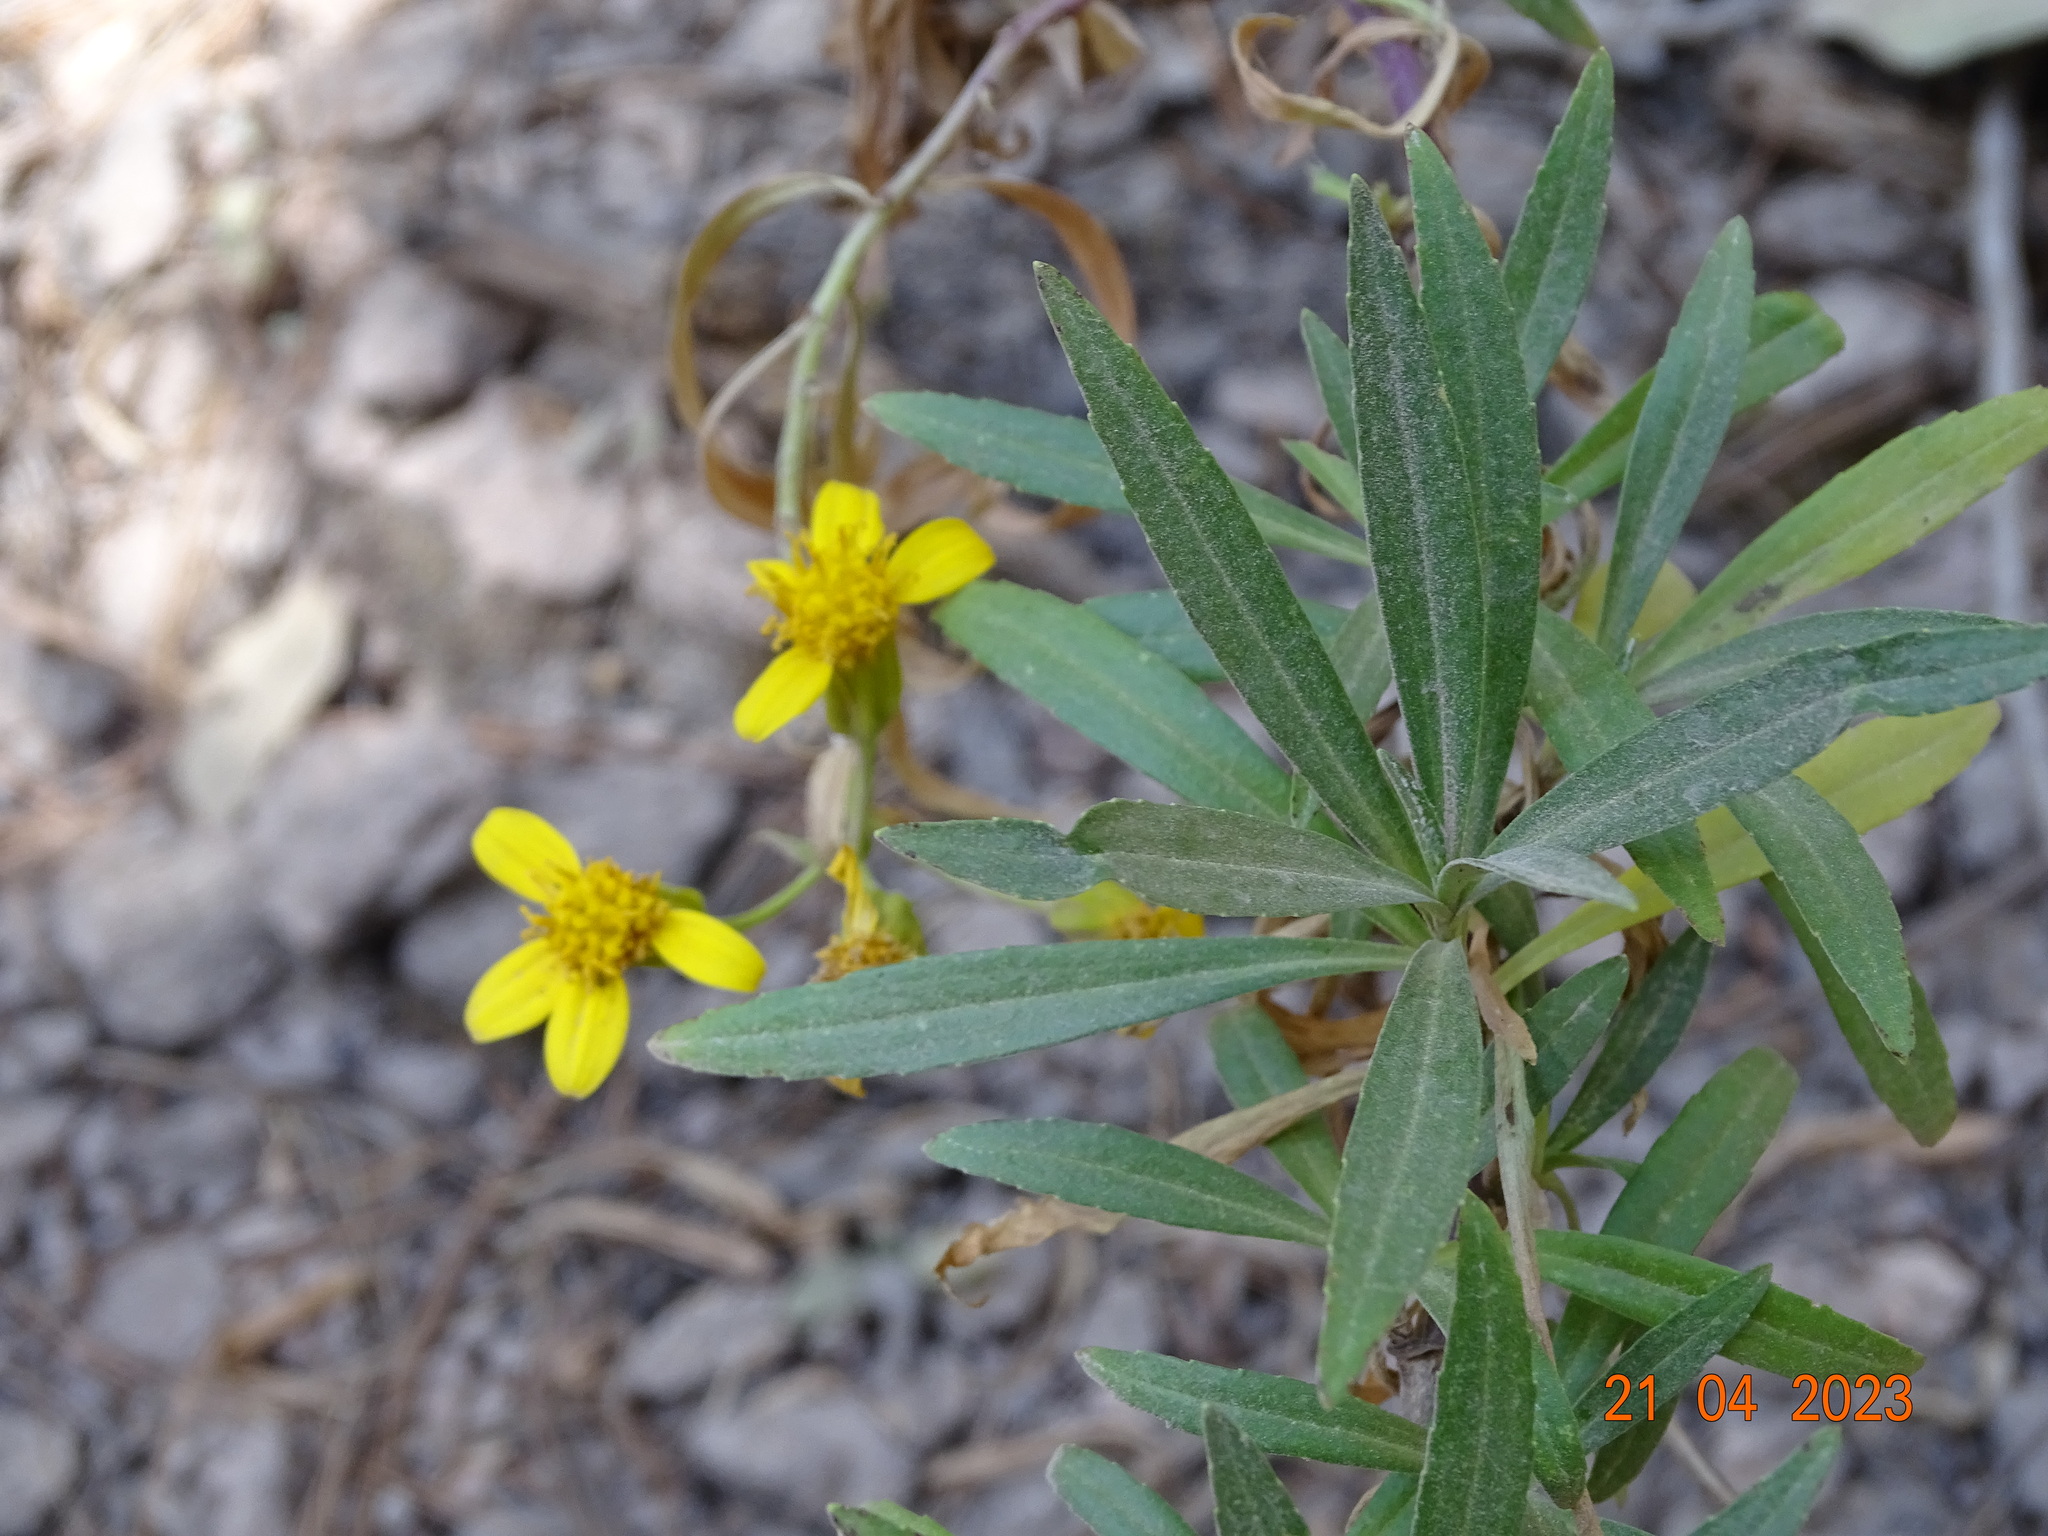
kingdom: Plantae
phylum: Tracheophyta
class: Magnoliopsida
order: Asterales
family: Asteraceae
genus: Barkleyanthus
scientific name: Barkleyanthus salicifolius
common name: Willow ragwort
